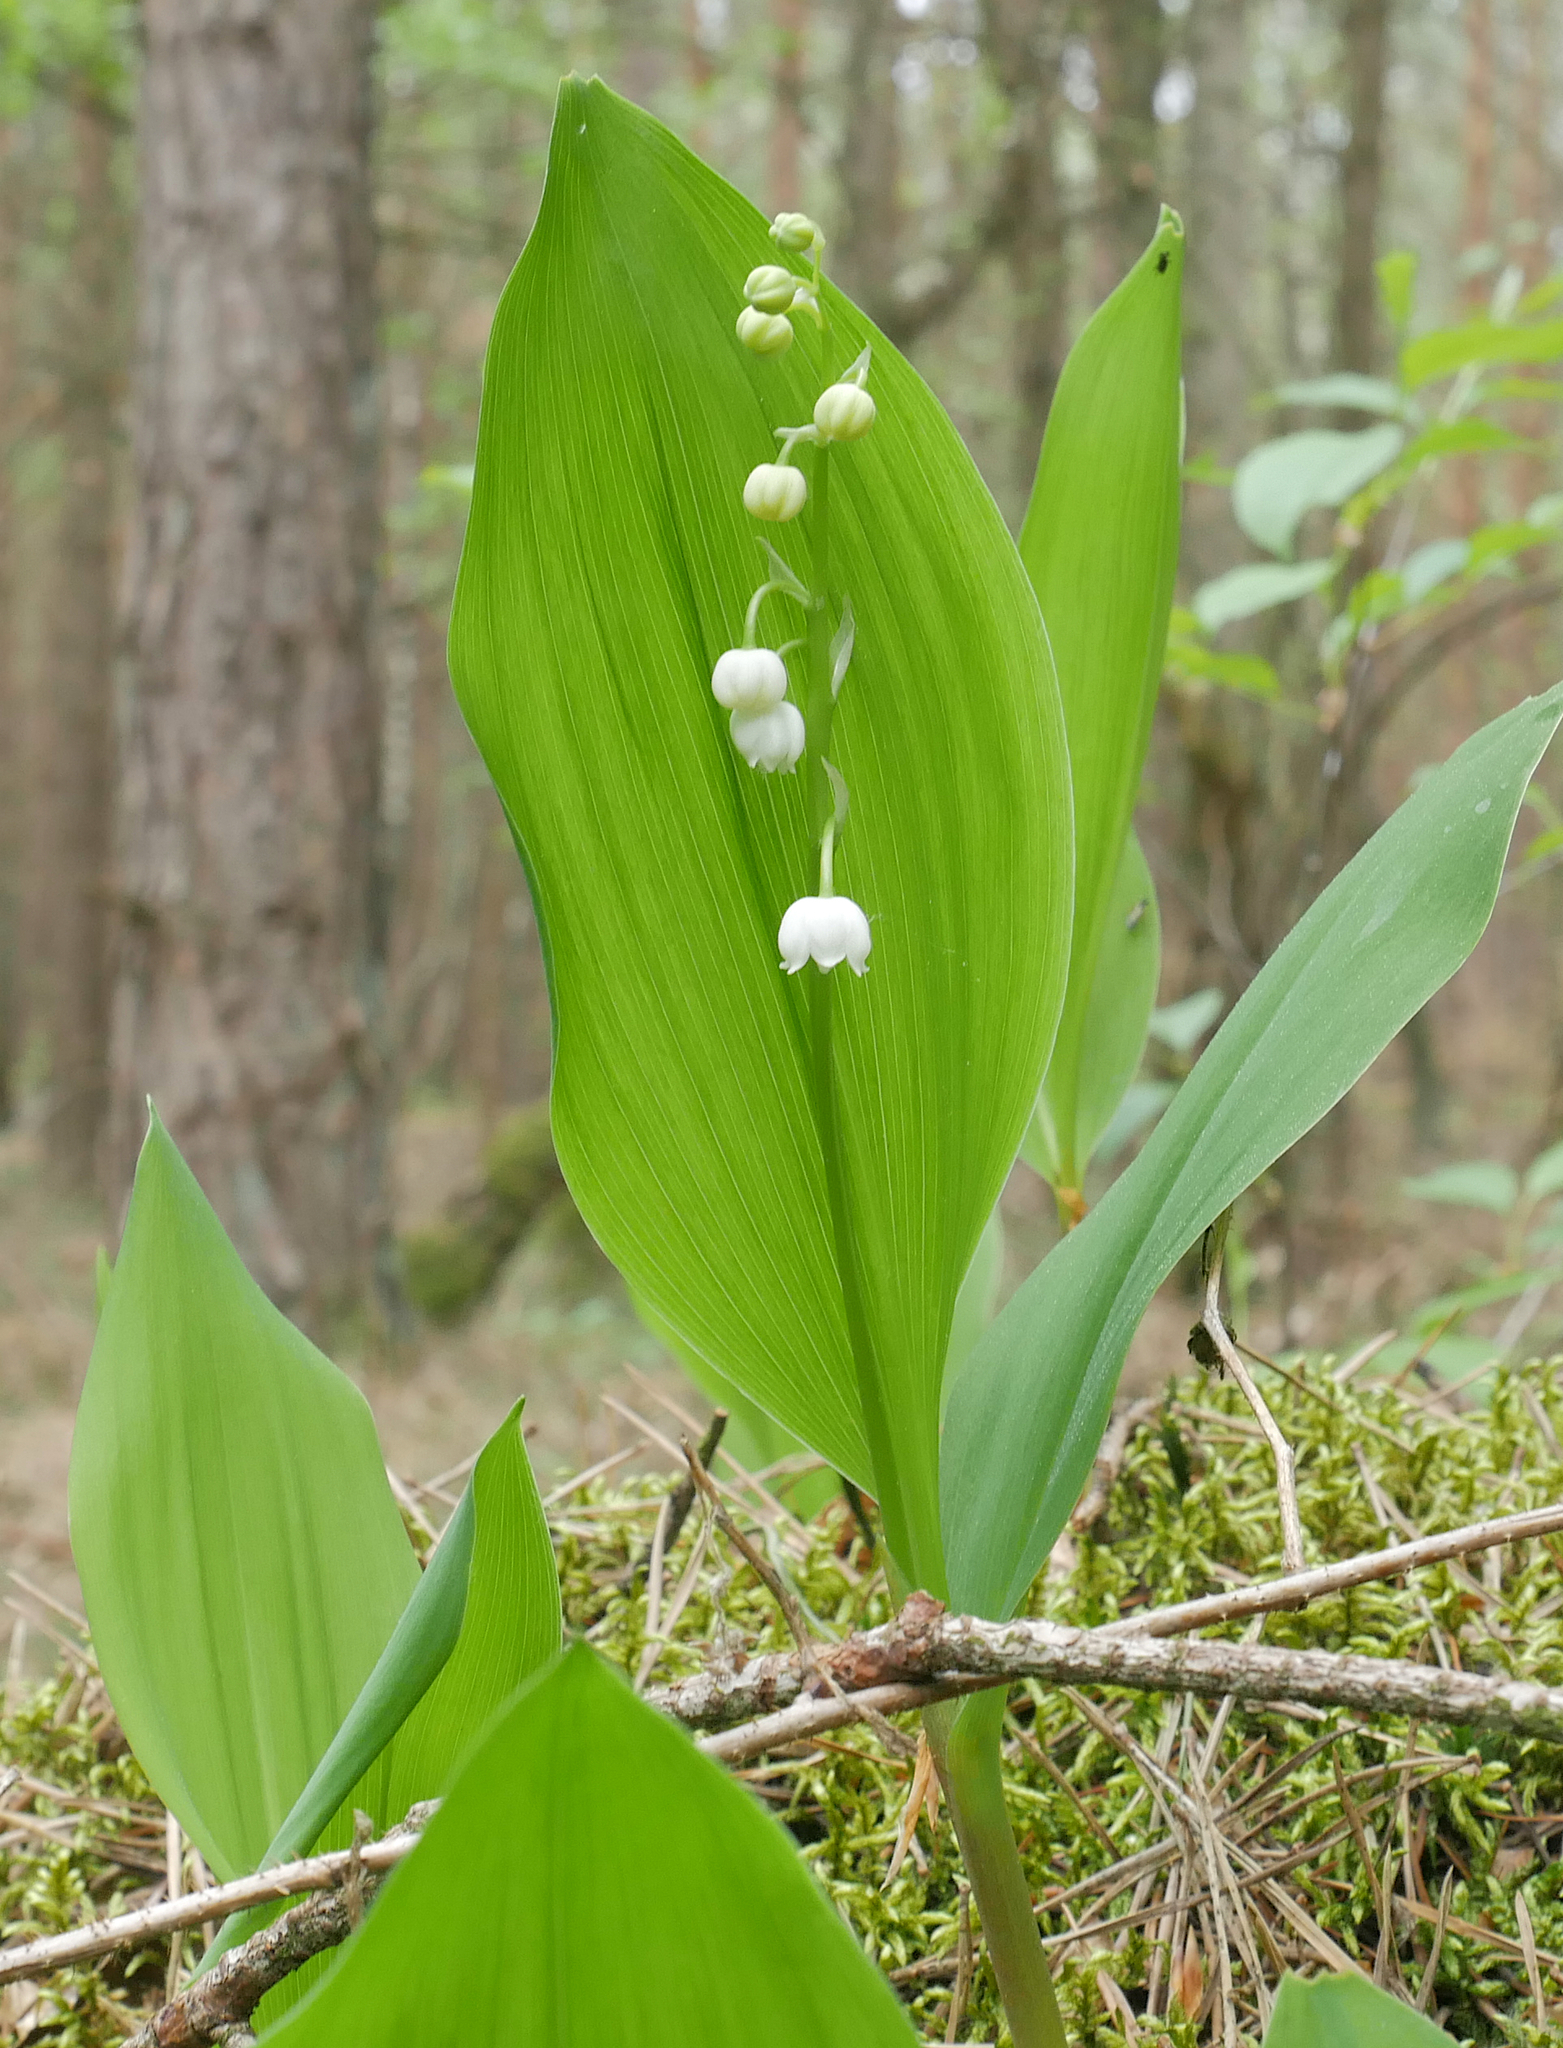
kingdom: Plantae
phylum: Tracheophyta
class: Liliopsida
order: Asparagales
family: Asparagaceae
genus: Convallaria
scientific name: Convallaria majalis
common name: Lily-of-the-valley
